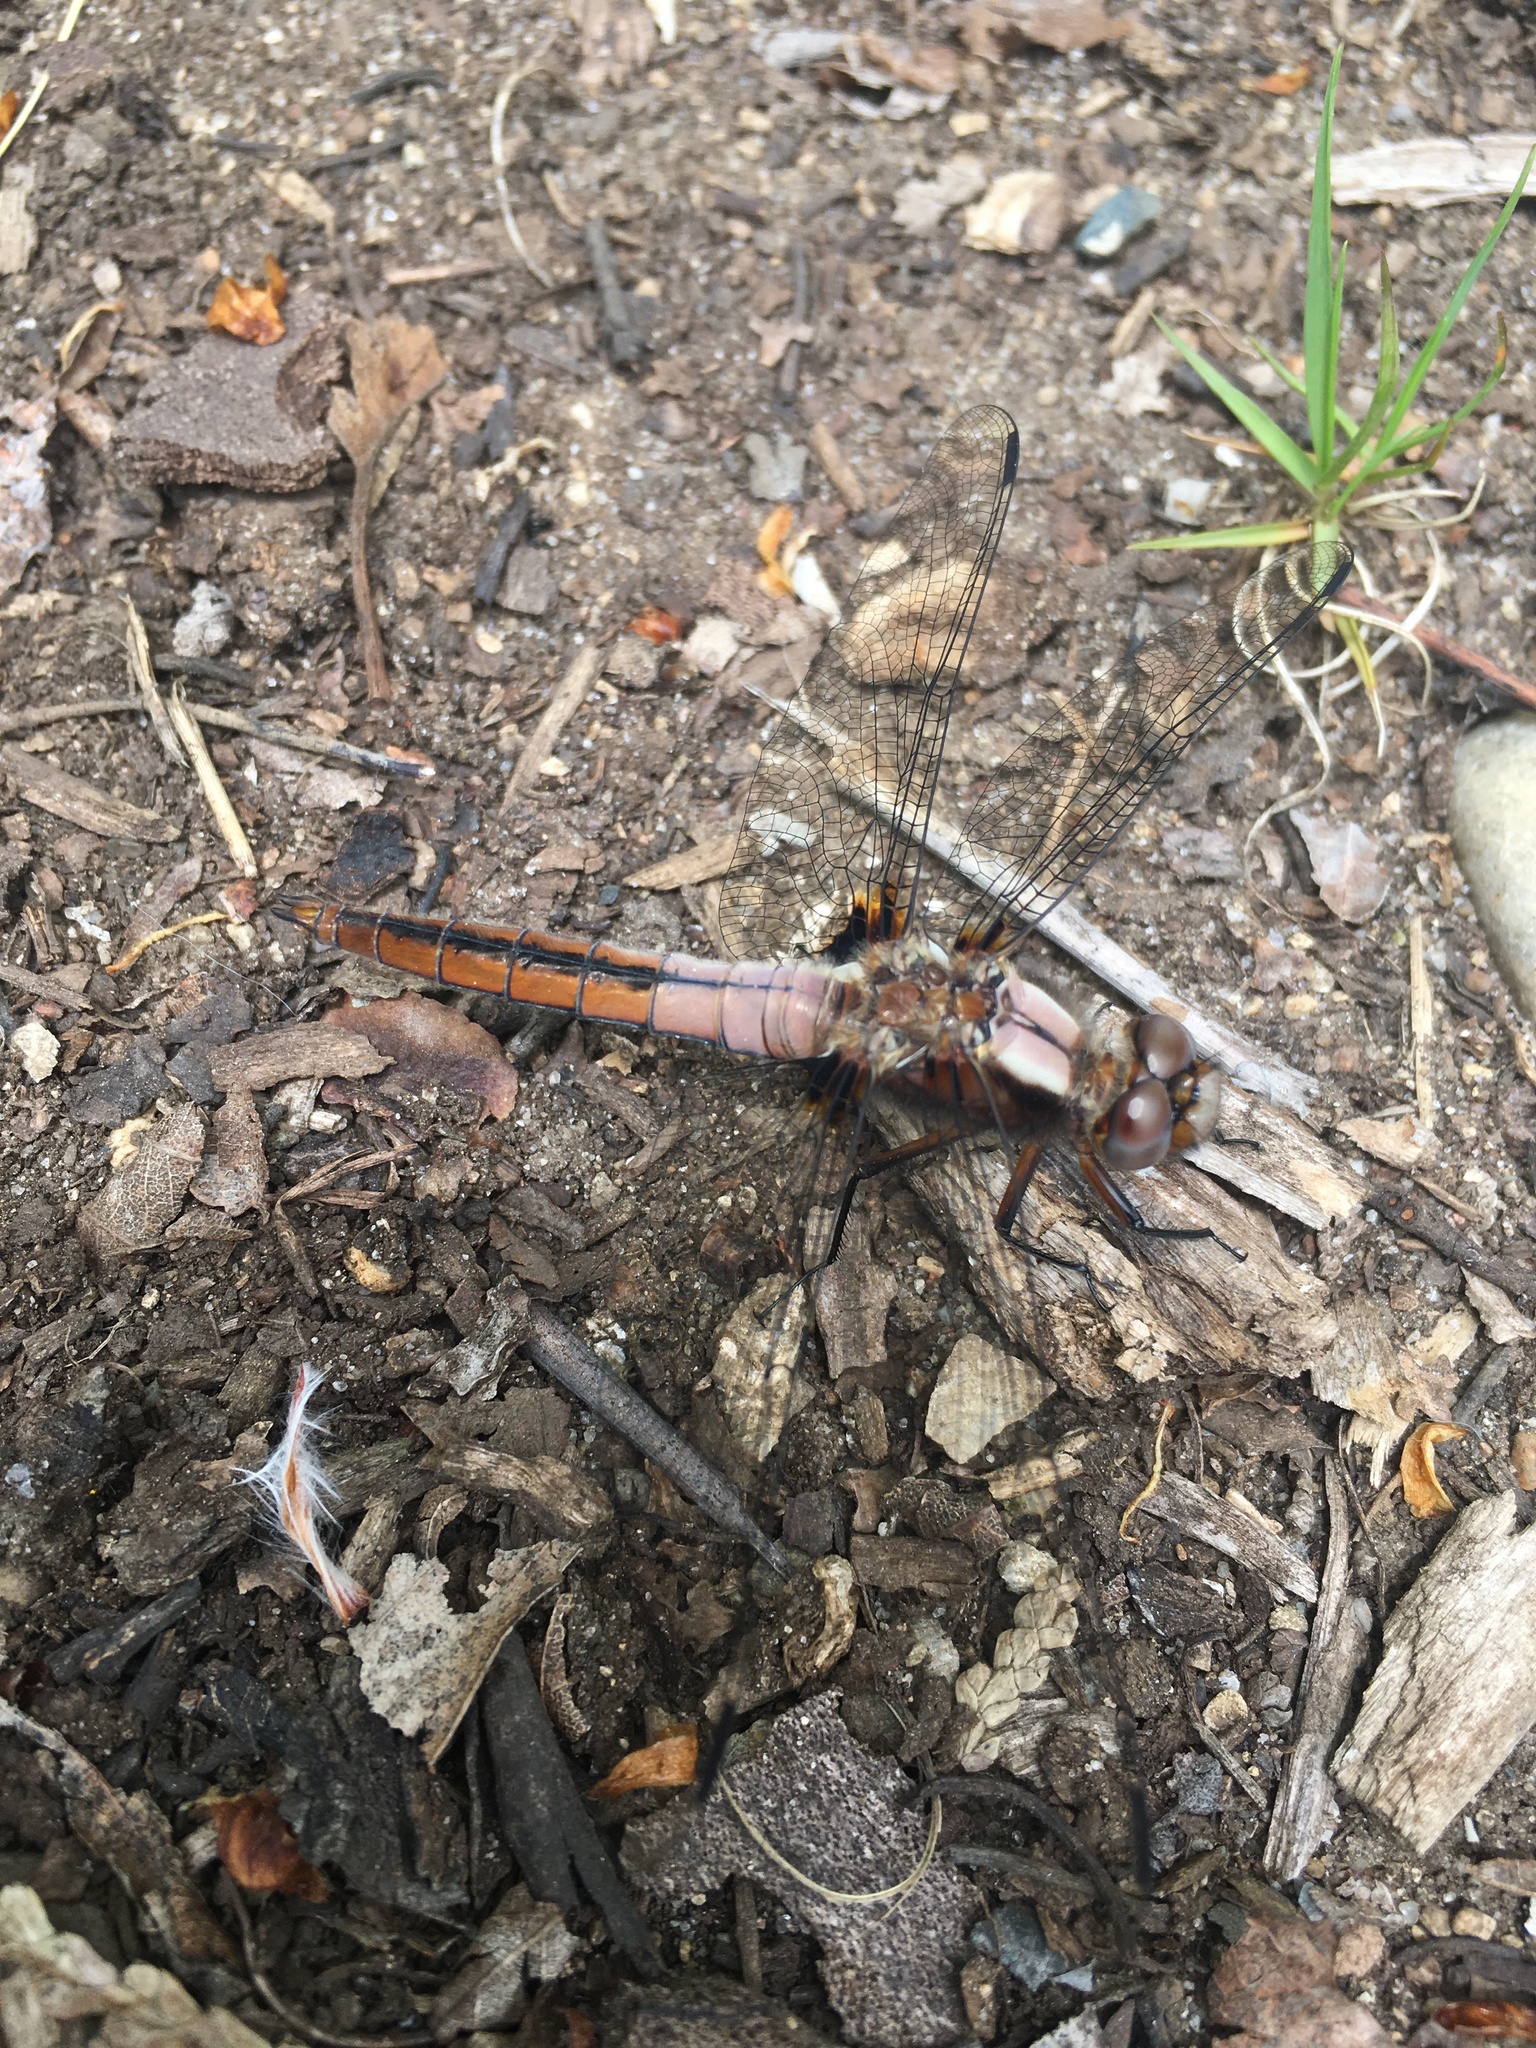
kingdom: Animalia
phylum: Arthropoda
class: Insecta
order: Odonata
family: Libellulidae
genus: Ladona
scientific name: Ladona julia
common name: Chalk-fronted corporal
